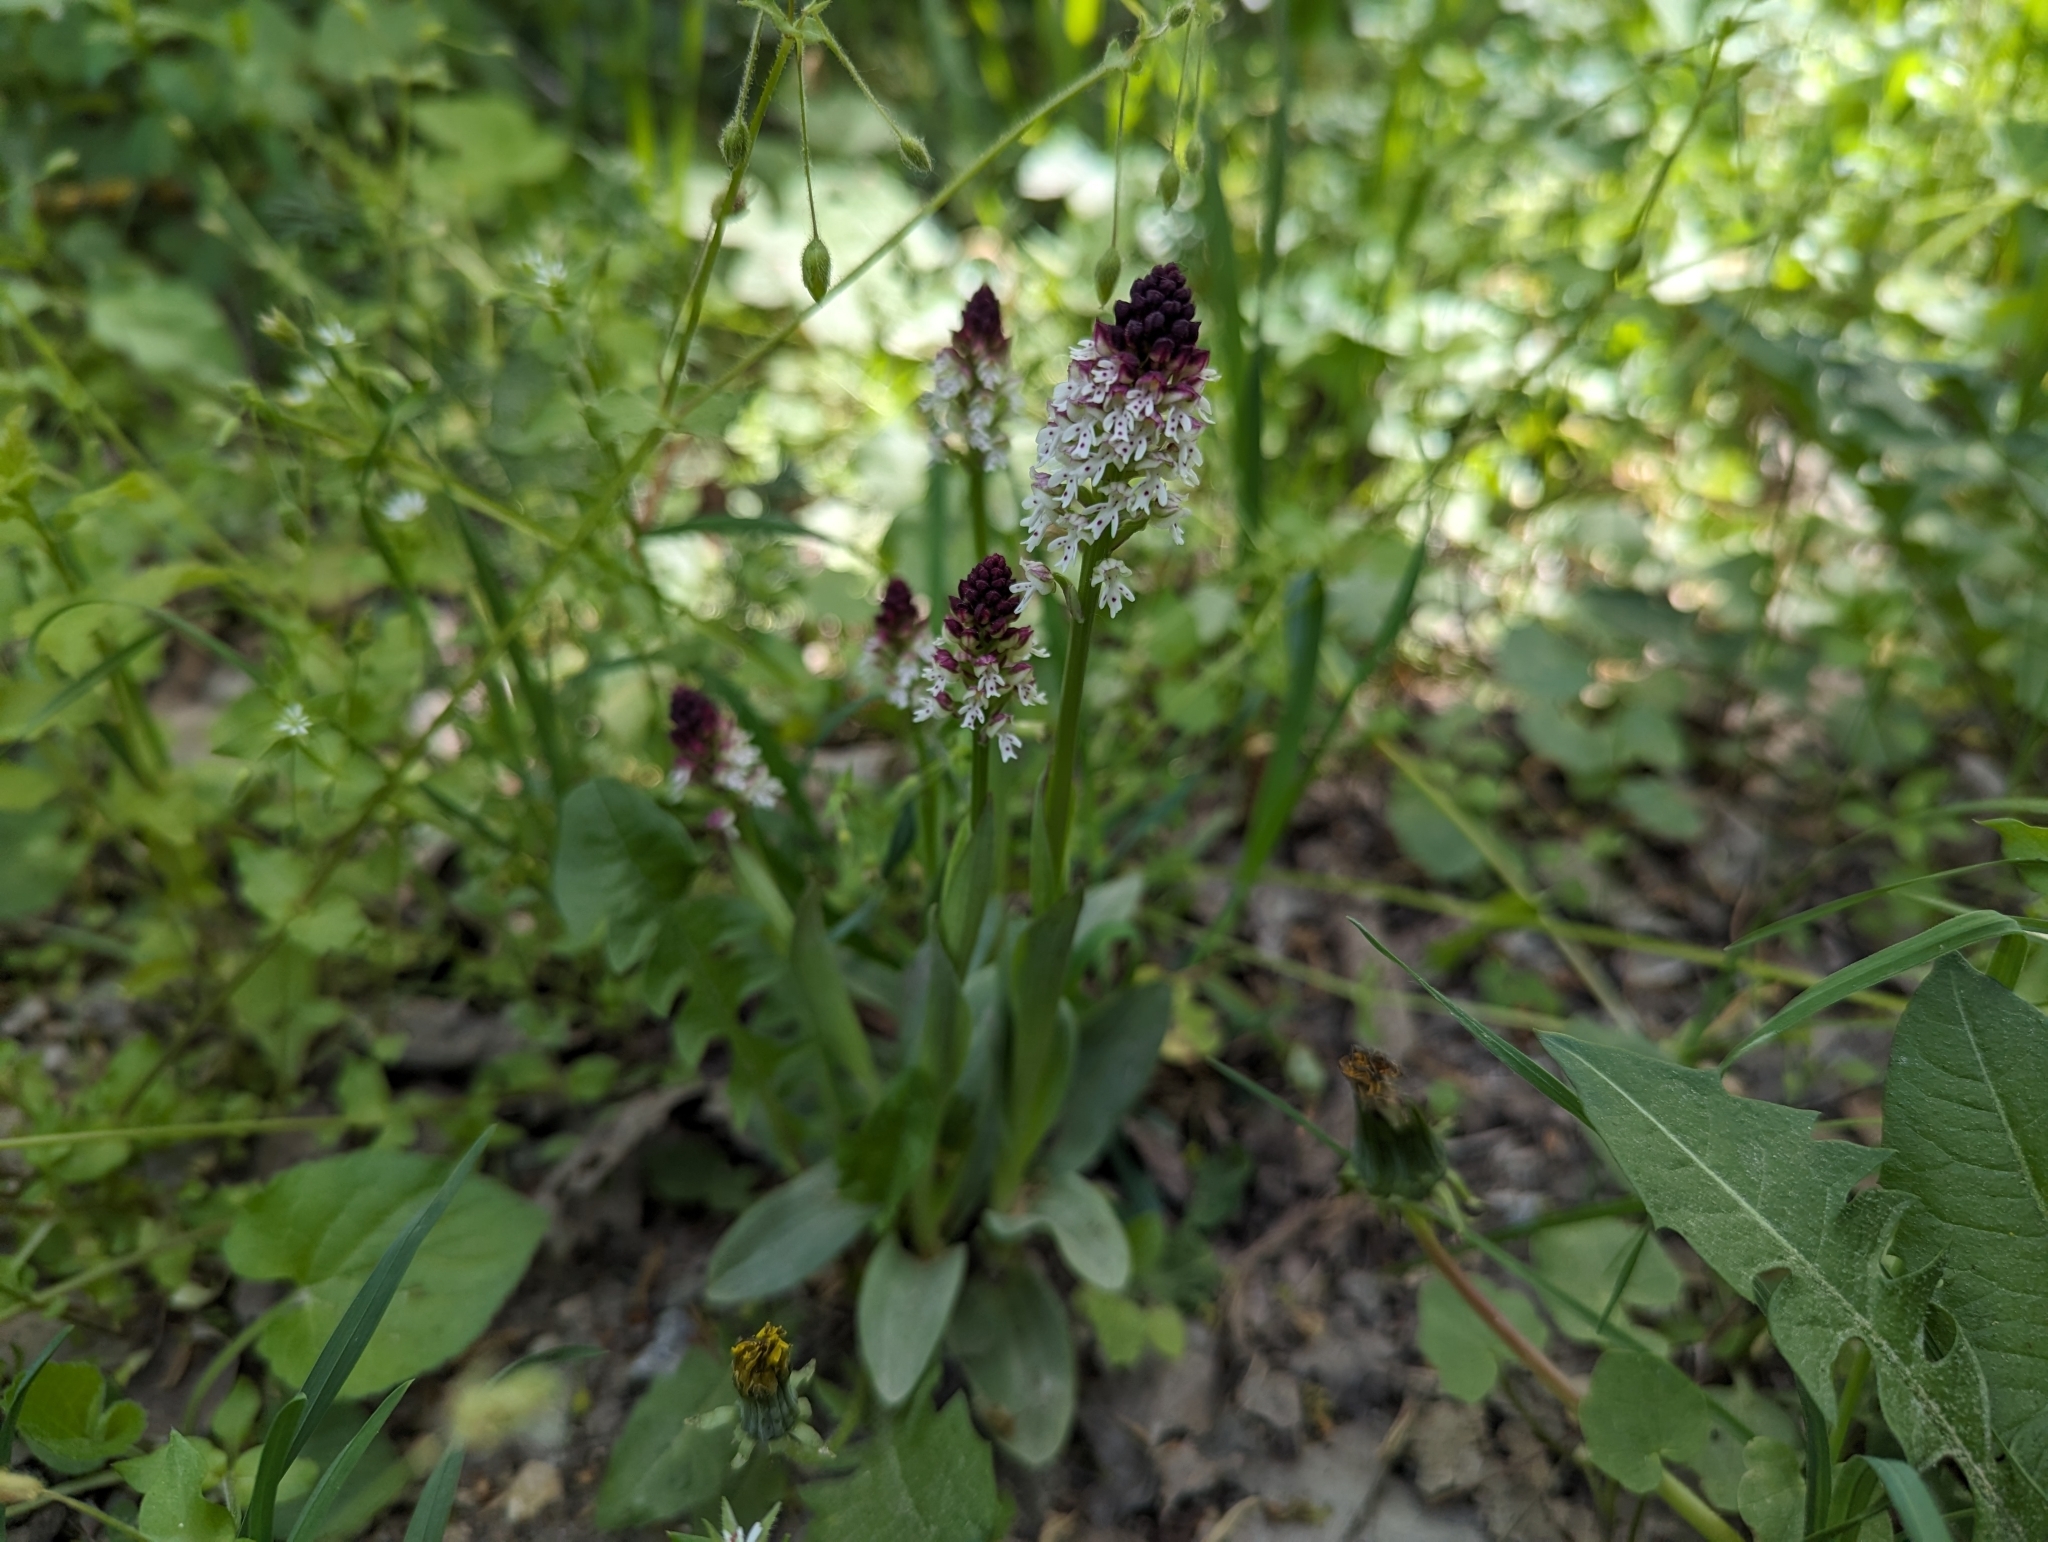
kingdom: Plantae
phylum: Tracheophyta
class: Liliopsida
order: Asparagales
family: Orchidaceae
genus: Neotinea
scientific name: Neotinea ustulata
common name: Burnt orchid
